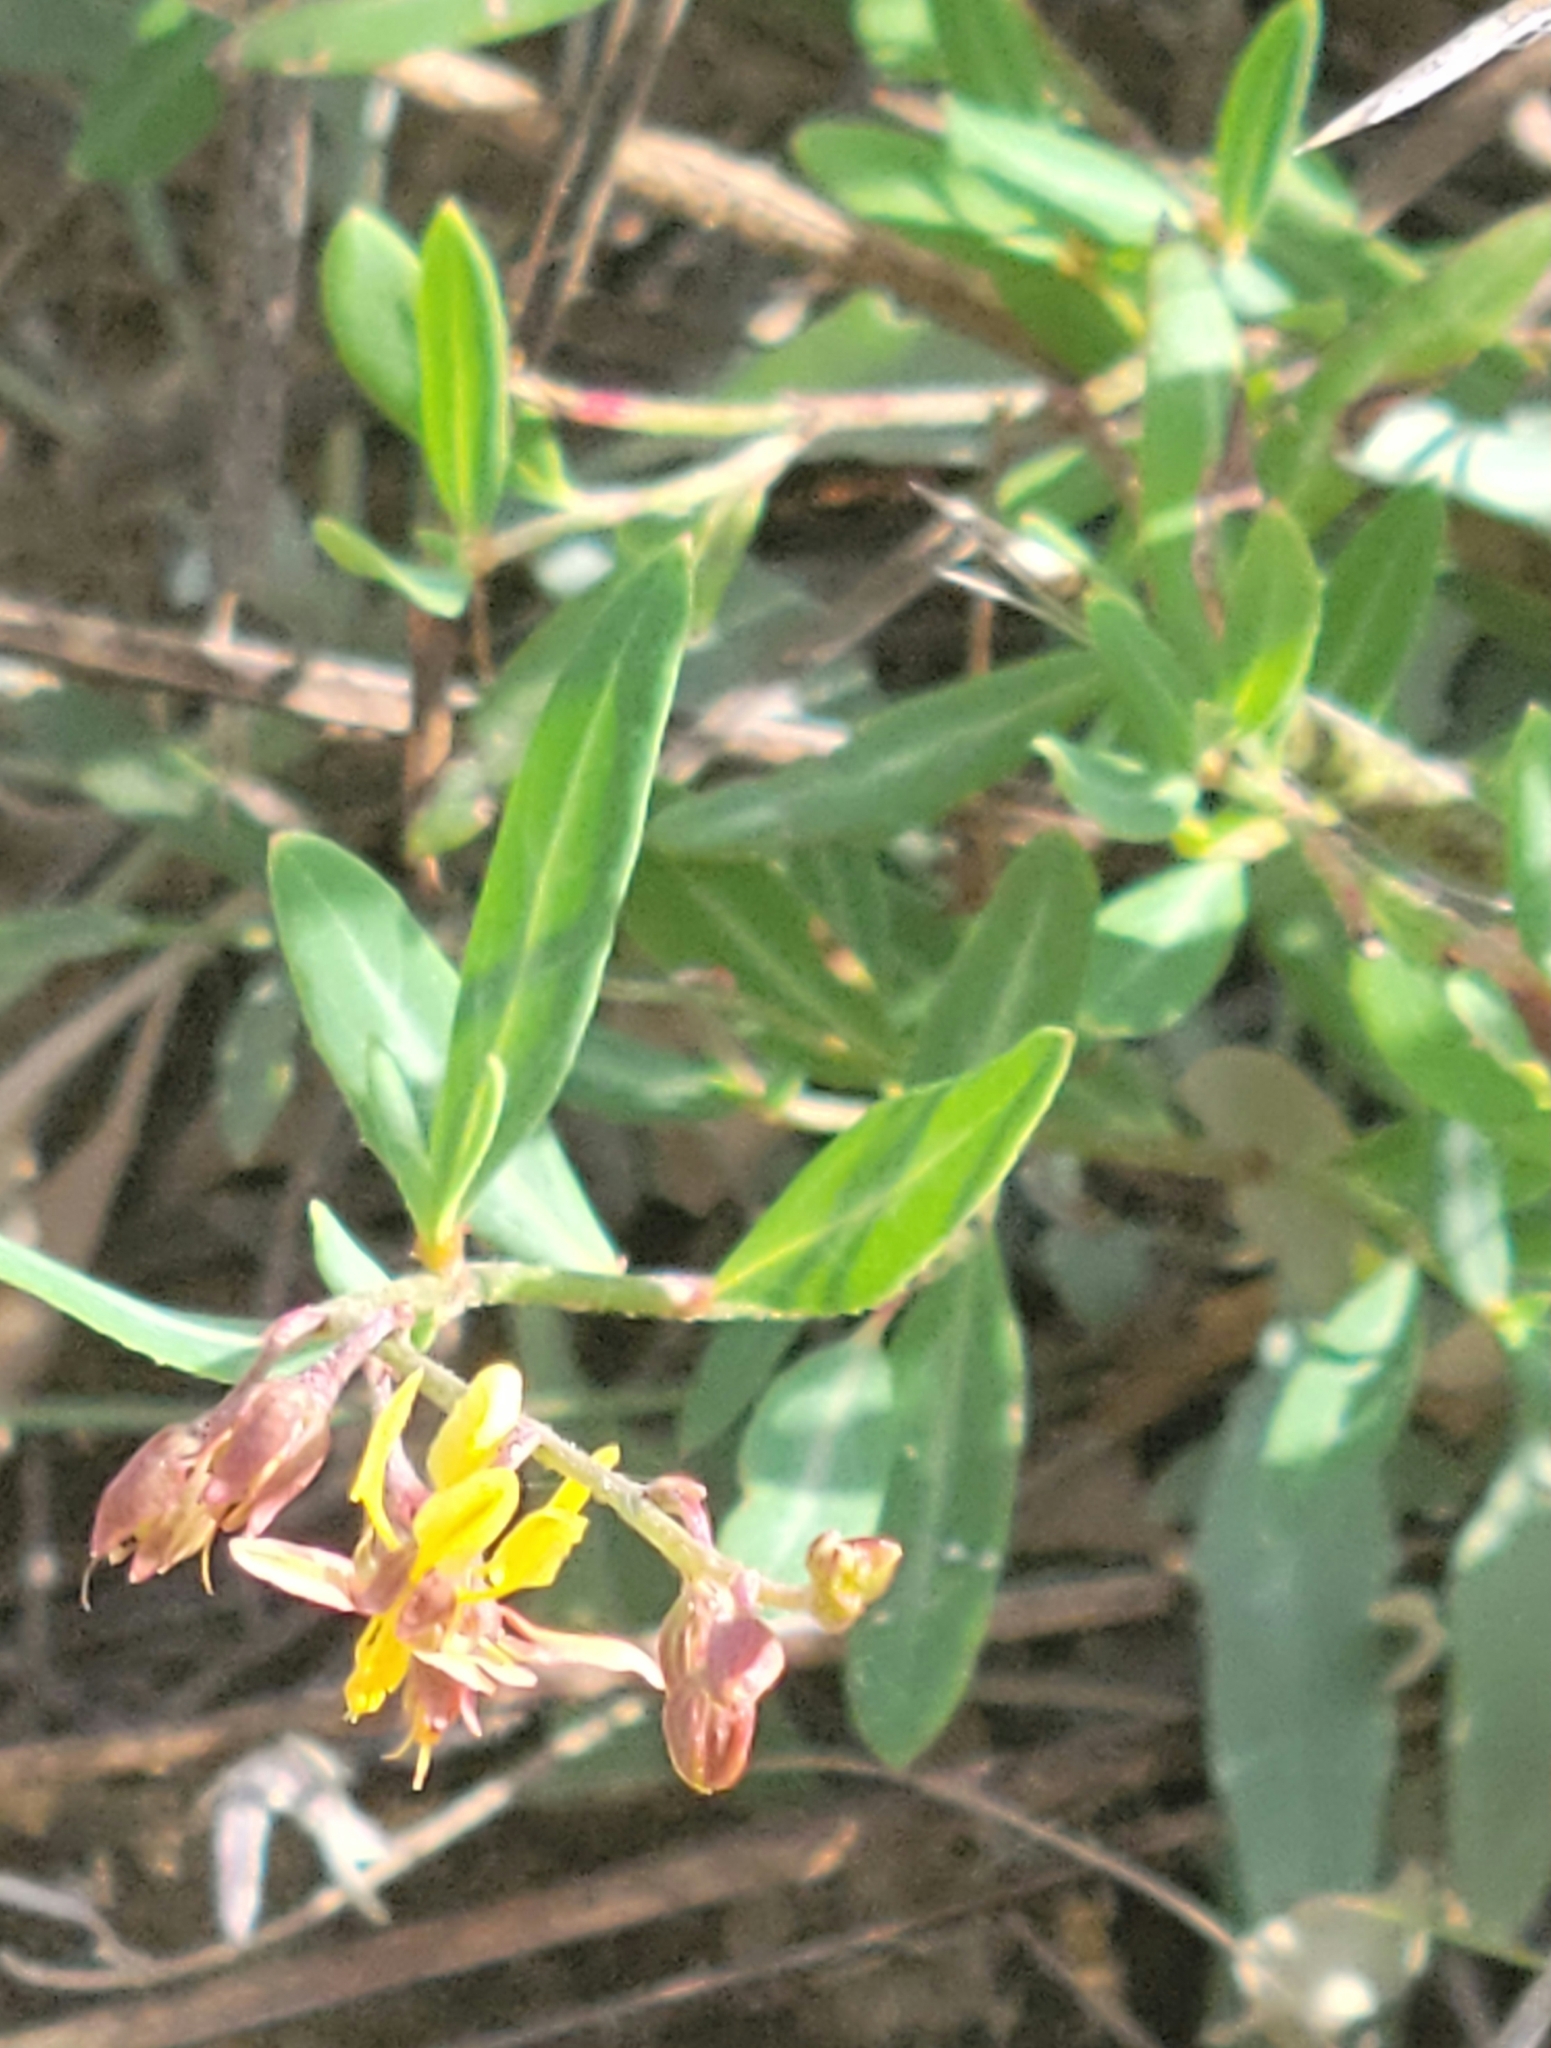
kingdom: Plantae
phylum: Tracheophyta
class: Magnoliopsida
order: Malpighiales
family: Malpighiaceae
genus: Galphimia
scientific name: Galphimia angustifolia
